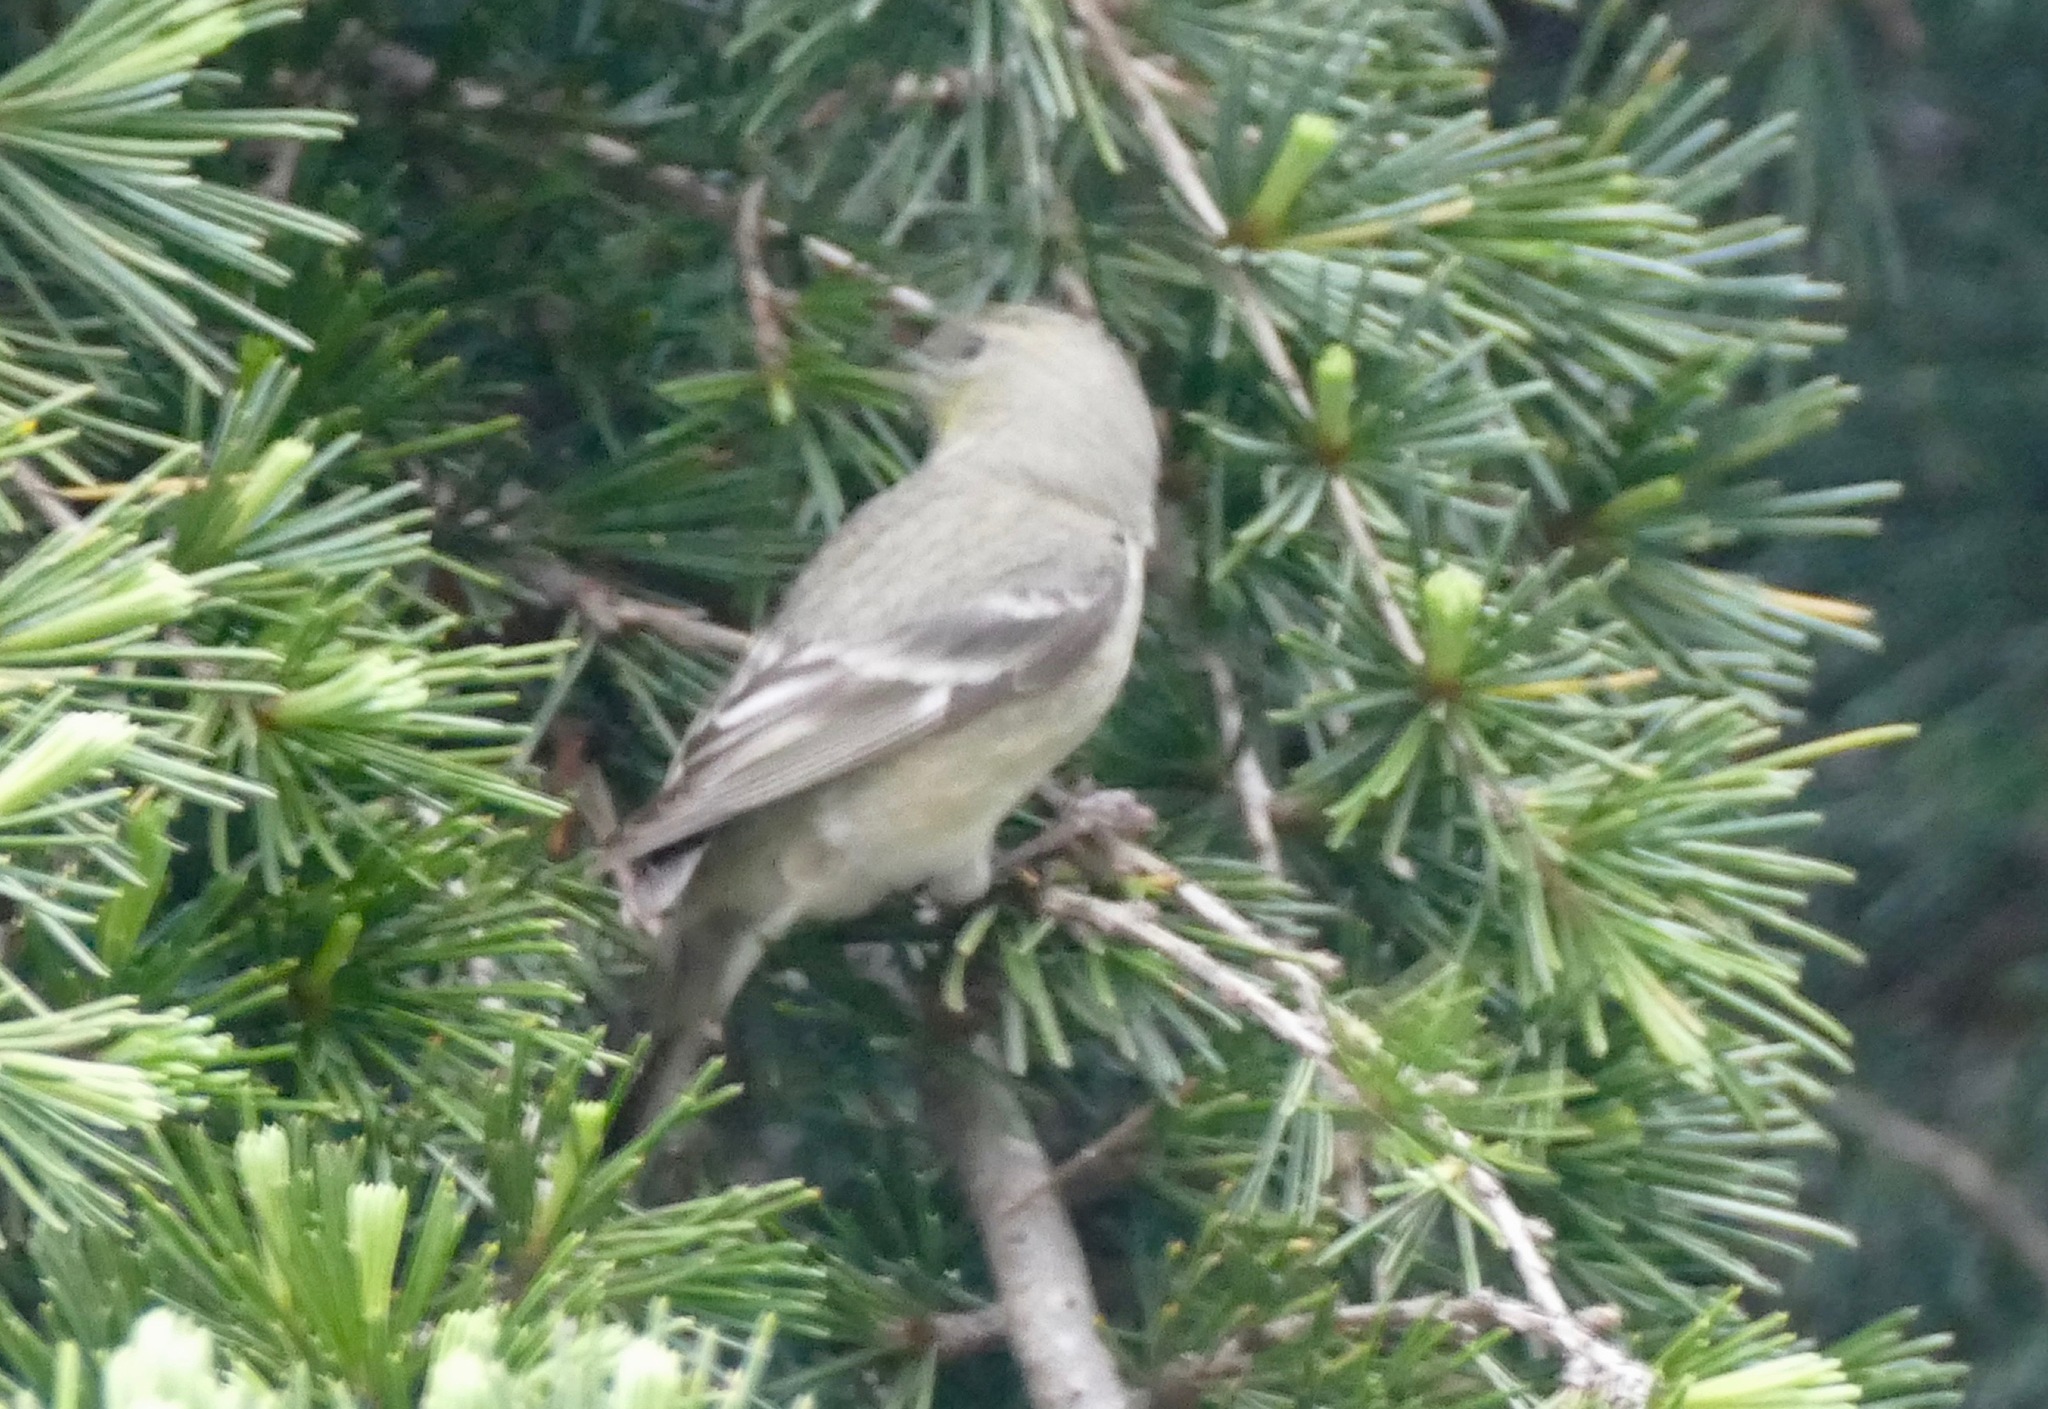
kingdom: Animalia
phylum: Chordata
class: Aves
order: Passeriformes
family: Fringillidae
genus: Spinus
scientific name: Spinus psaltria
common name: Lesser goldfinch
